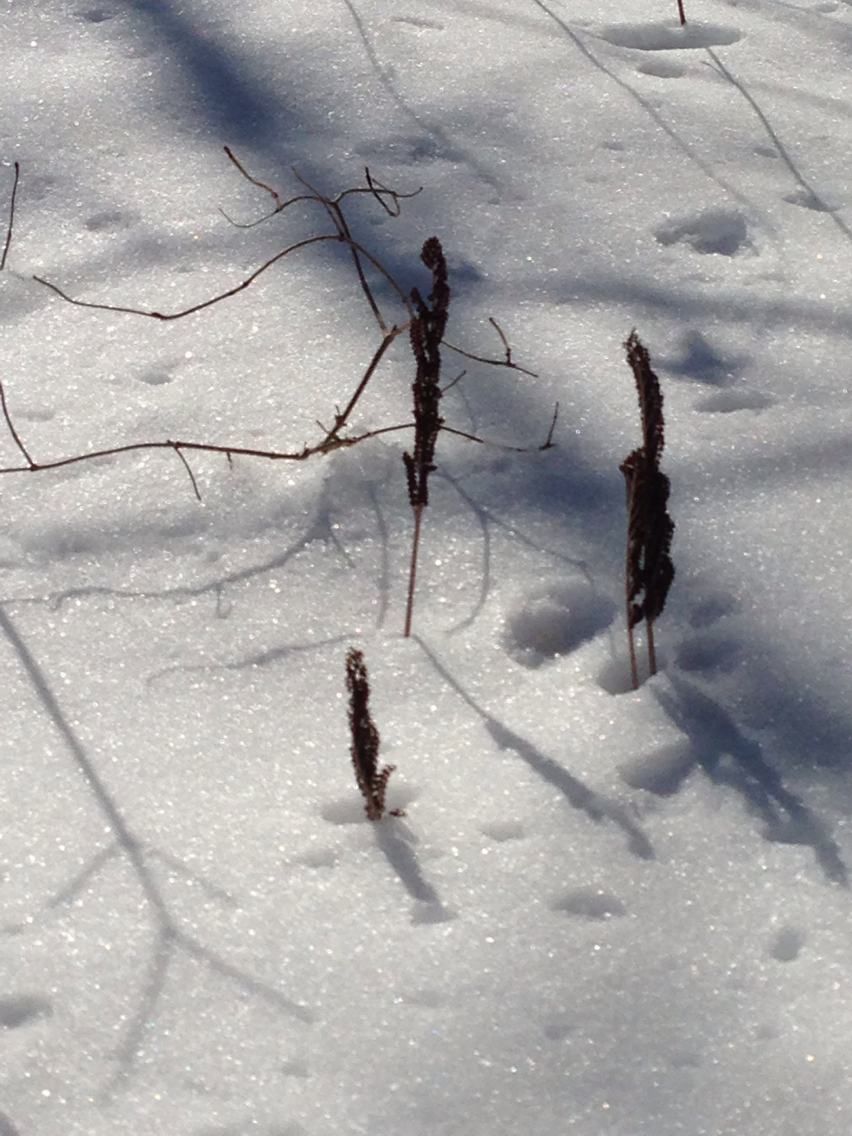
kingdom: Plantae
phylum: Tracheophyta
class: Polypodiopsida
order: Polypodiales
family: Onocleaceae
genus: Onoclea
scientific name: Onoclea sensibilis
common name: Sensitive fern
